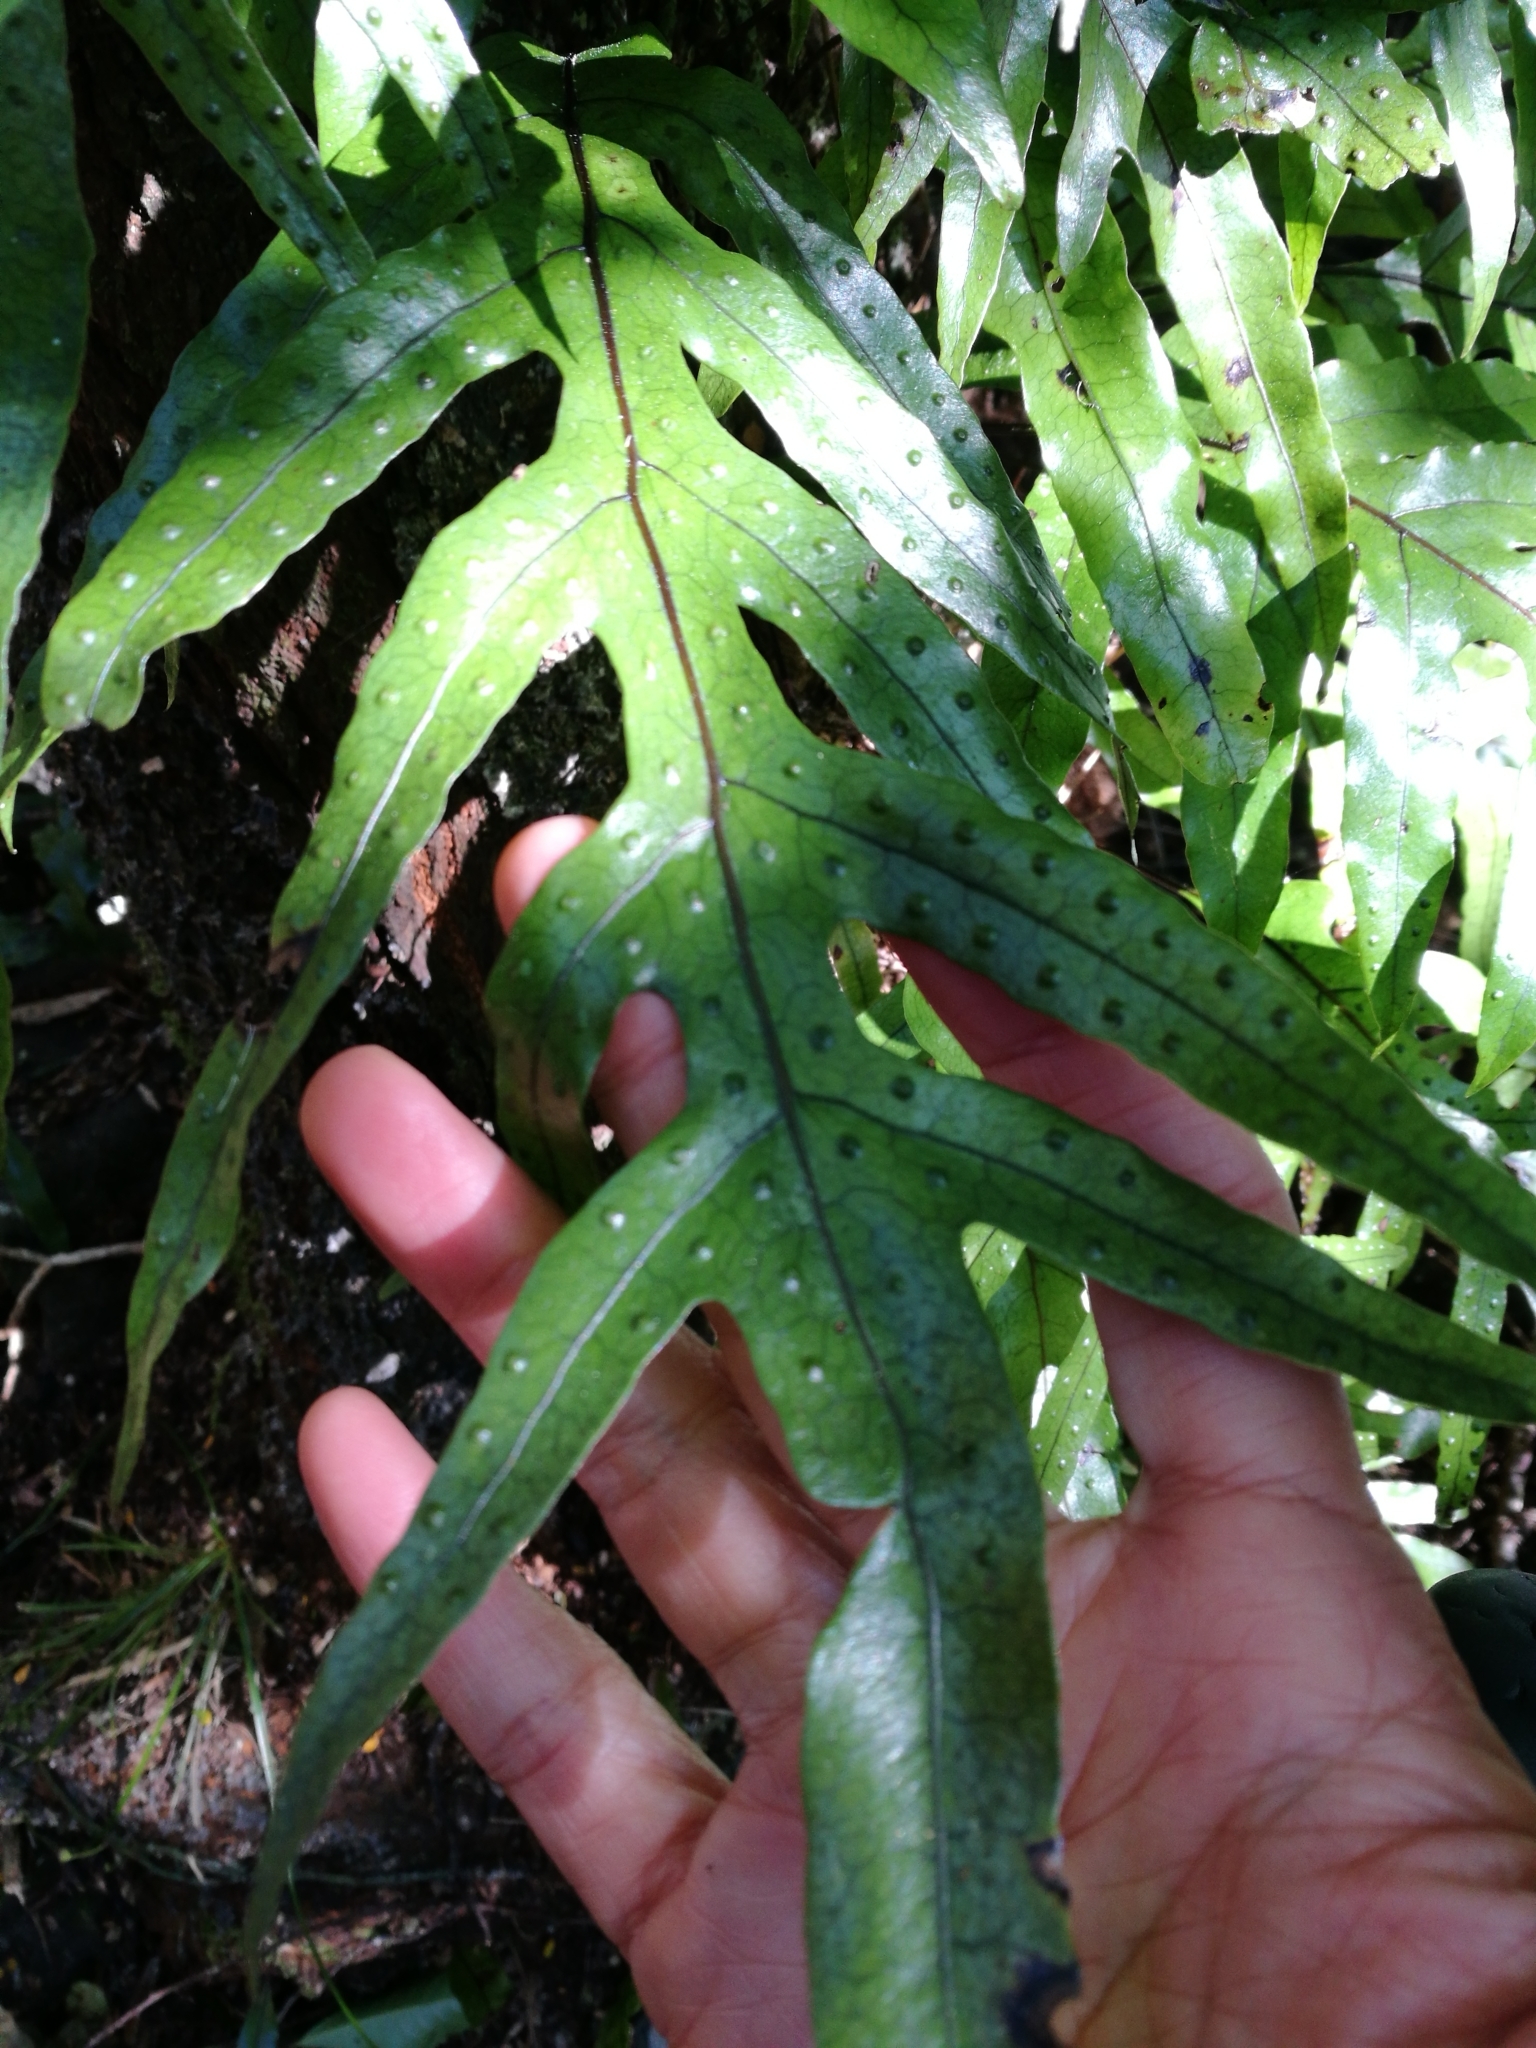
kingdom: Plantae
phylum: Tracheophyta
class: Polypodiopsida
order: Polypodiales
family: Polypodiaceae
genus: Lecanopteris
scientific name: Lecanopteris pustulata
